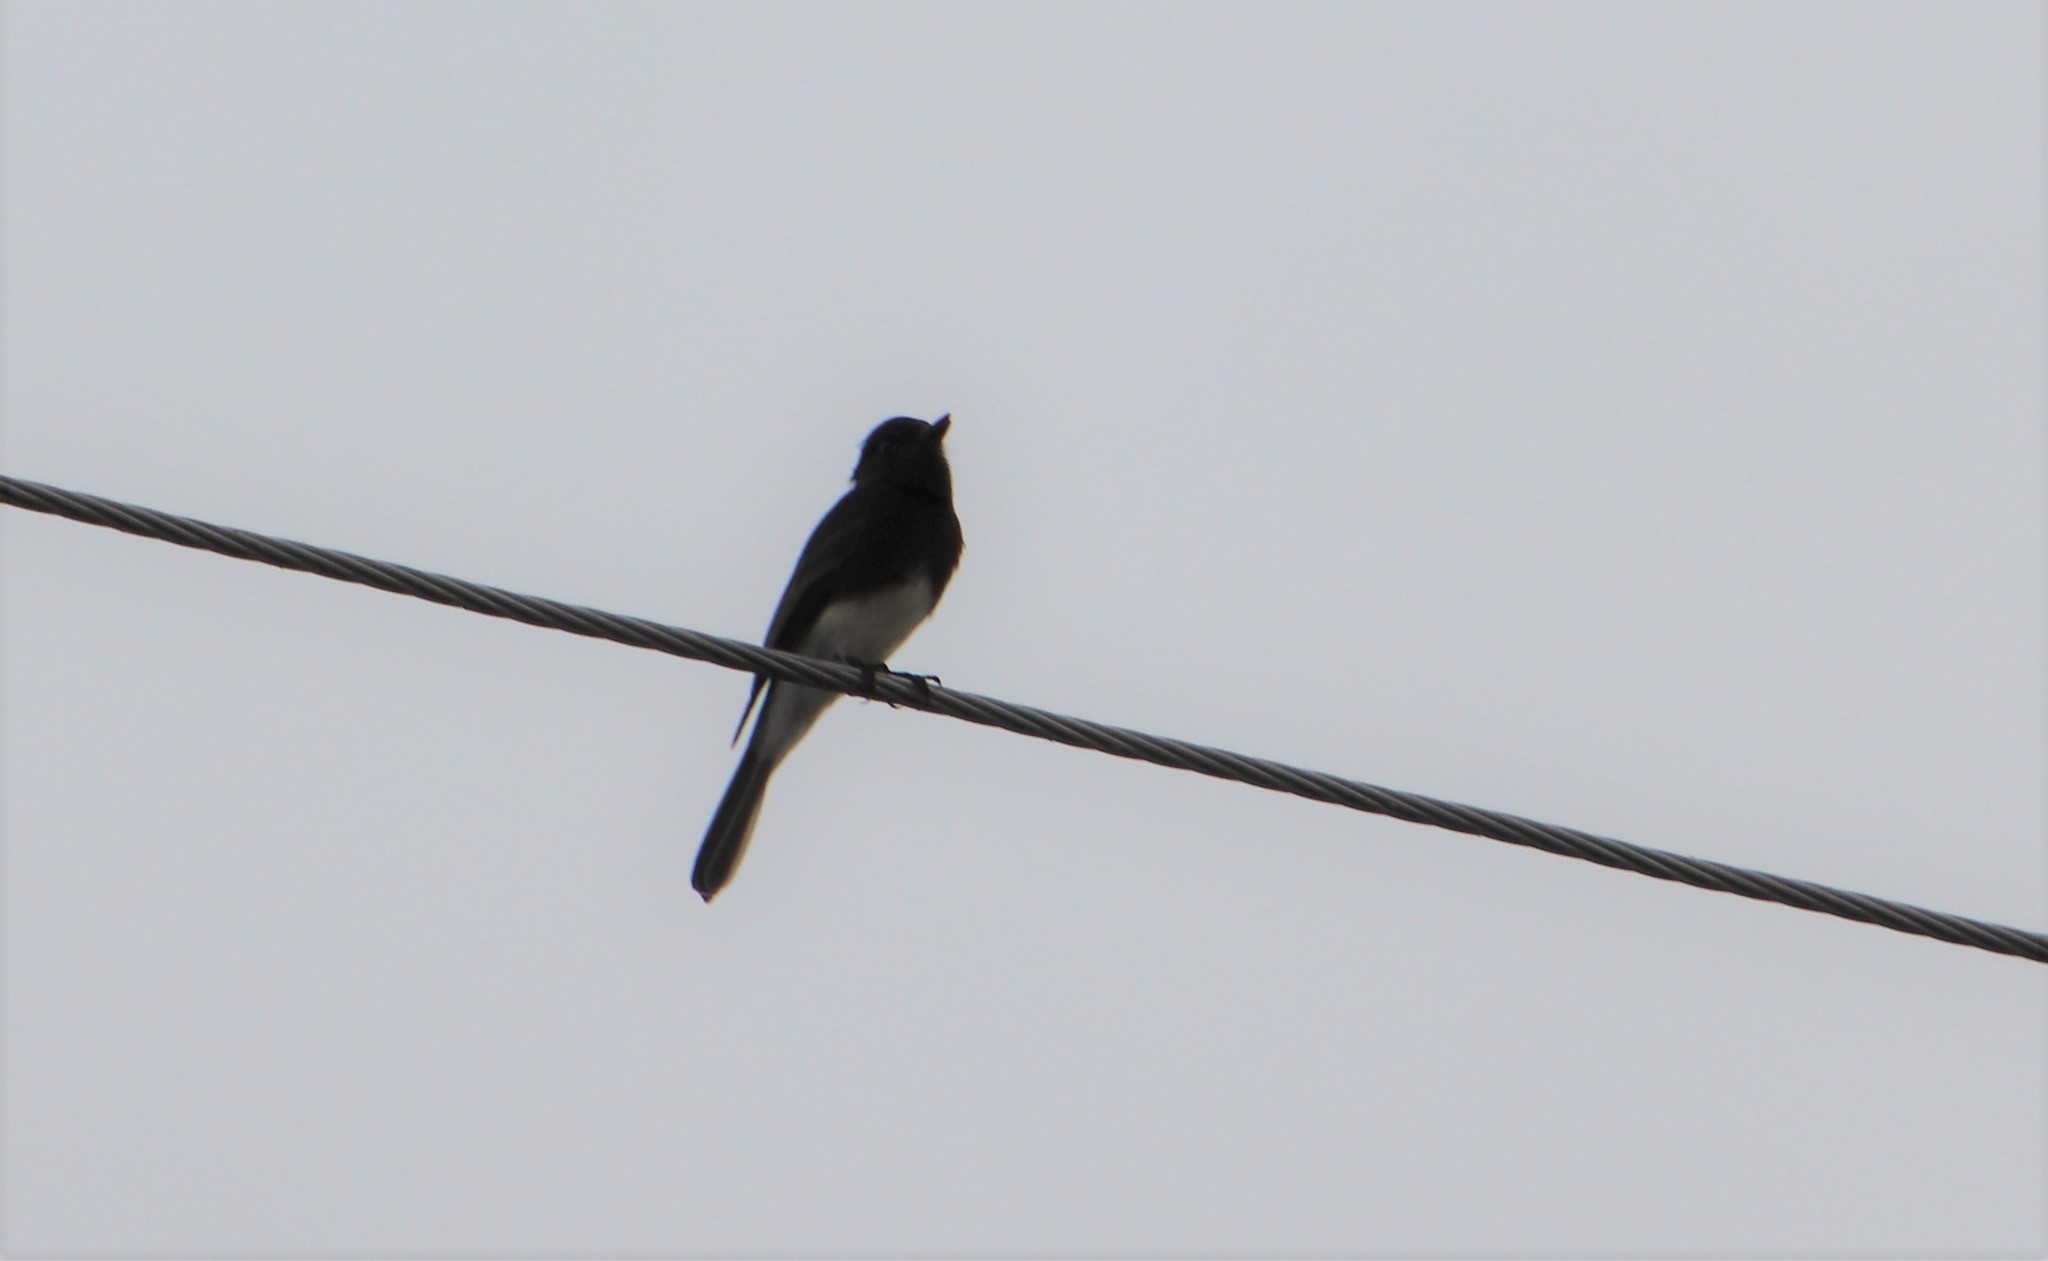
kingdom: Animalia
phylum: Chordata
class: Aves
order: Passeriformes
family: Tyrannidae
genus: Sayornis
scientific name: Sayornis nigricans
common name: Black phoebe
